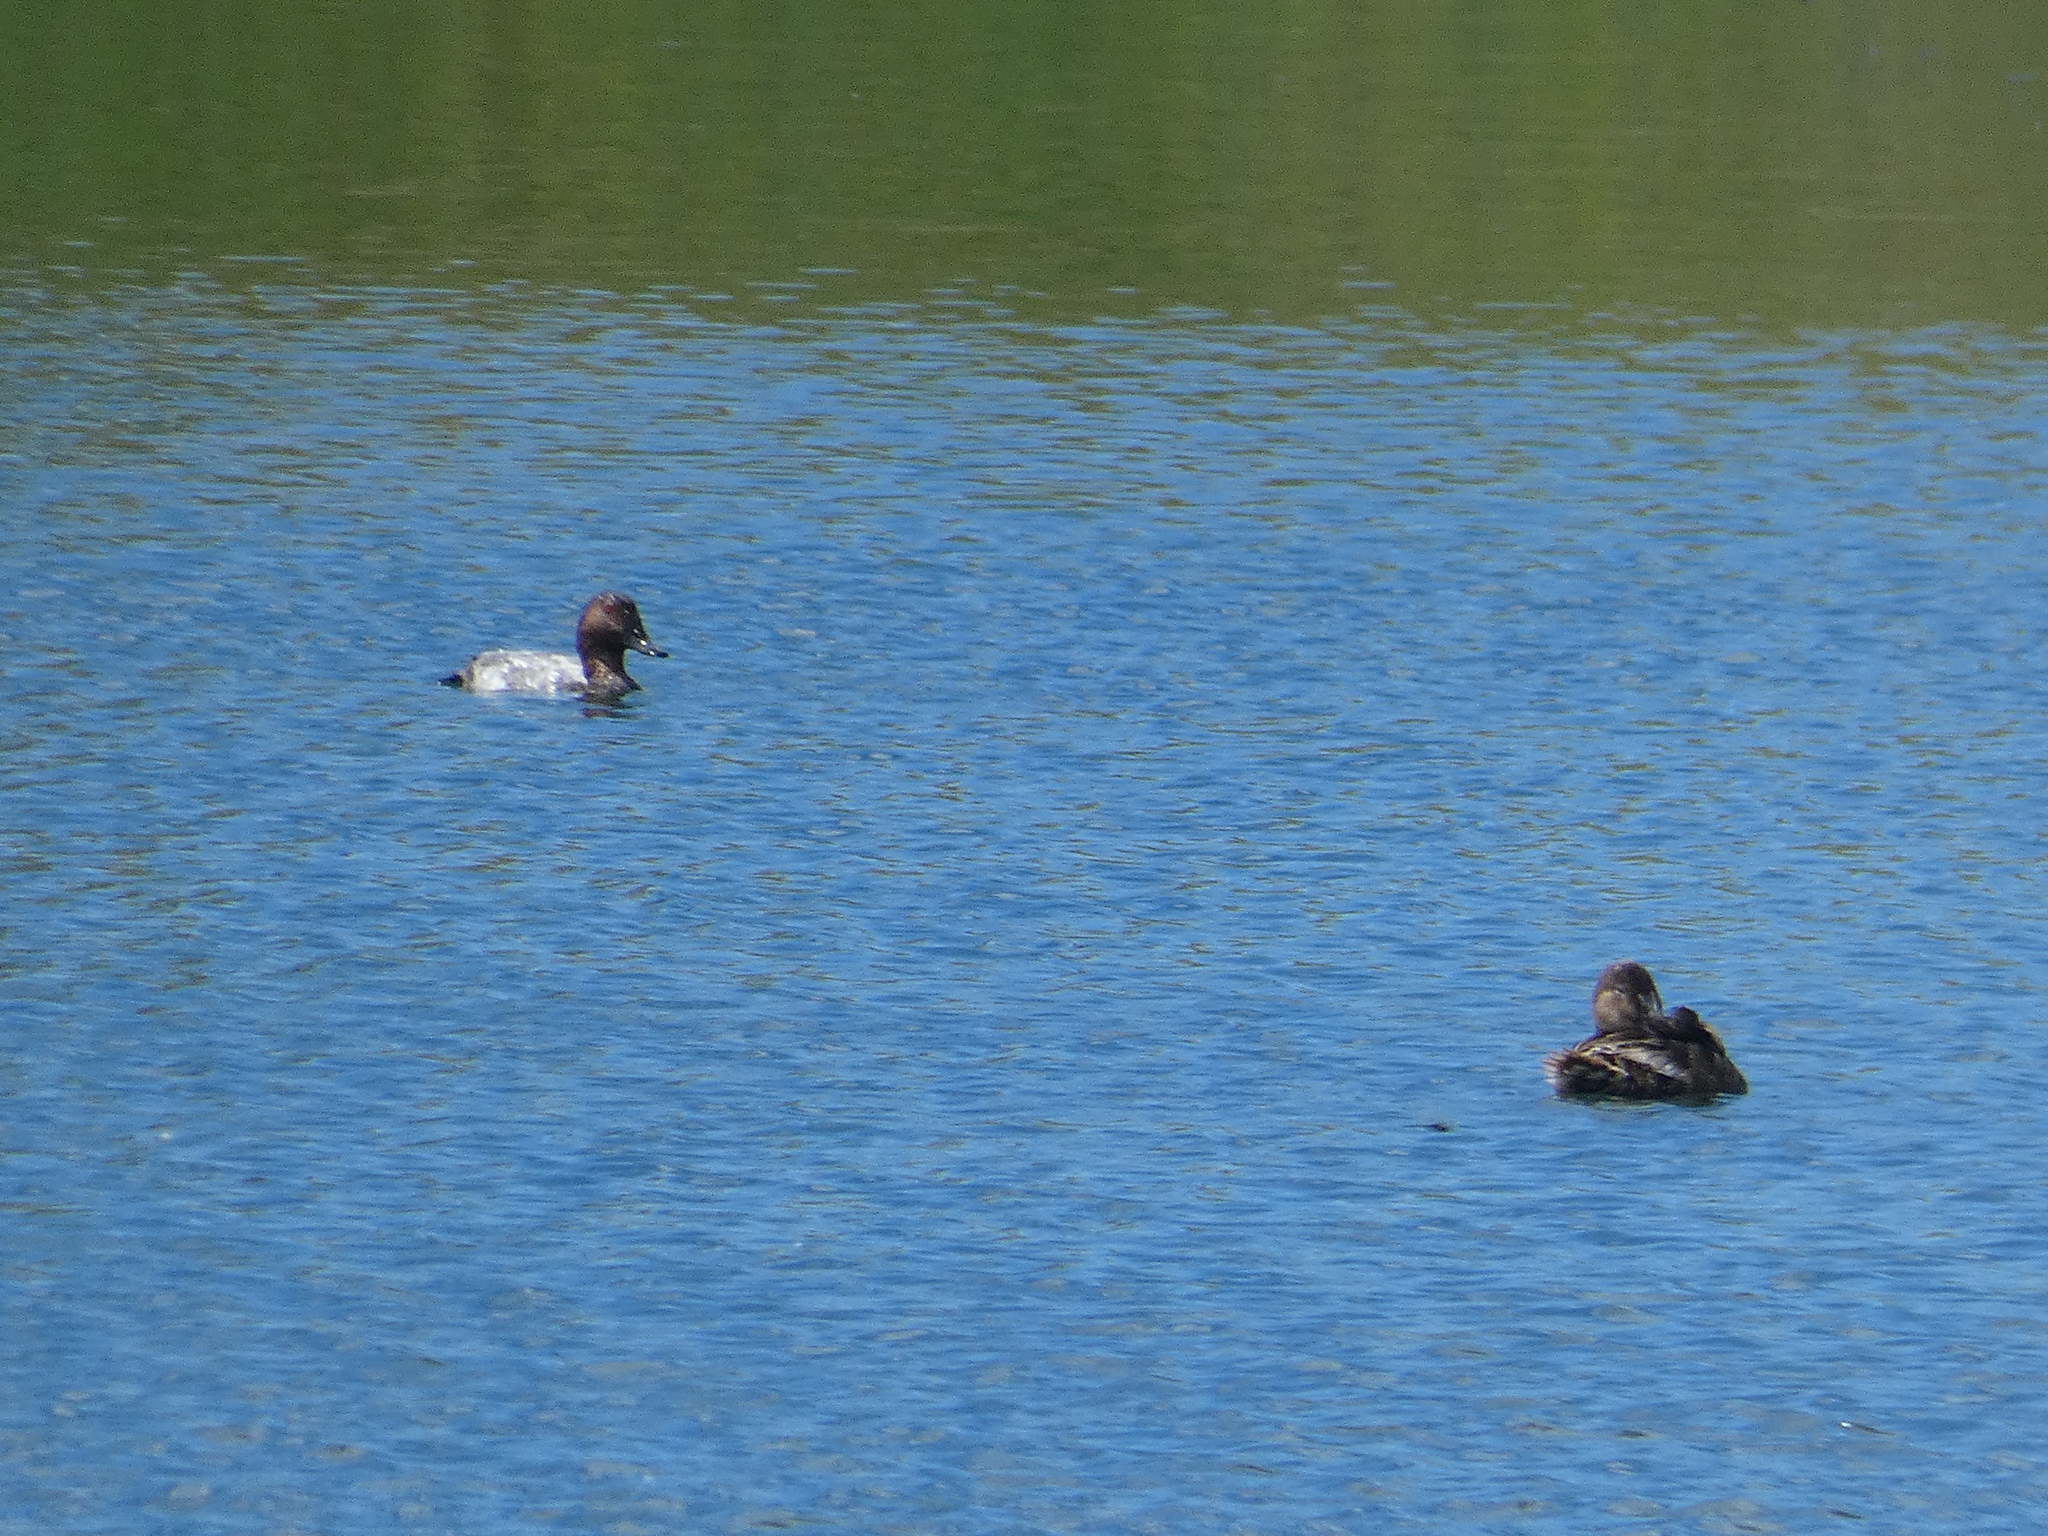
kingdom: Animalia
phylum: Chordata
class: Aves
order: Anseriformes
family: Anatidae
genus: Aythya
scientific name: Aythya ferina
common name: Common pochard
